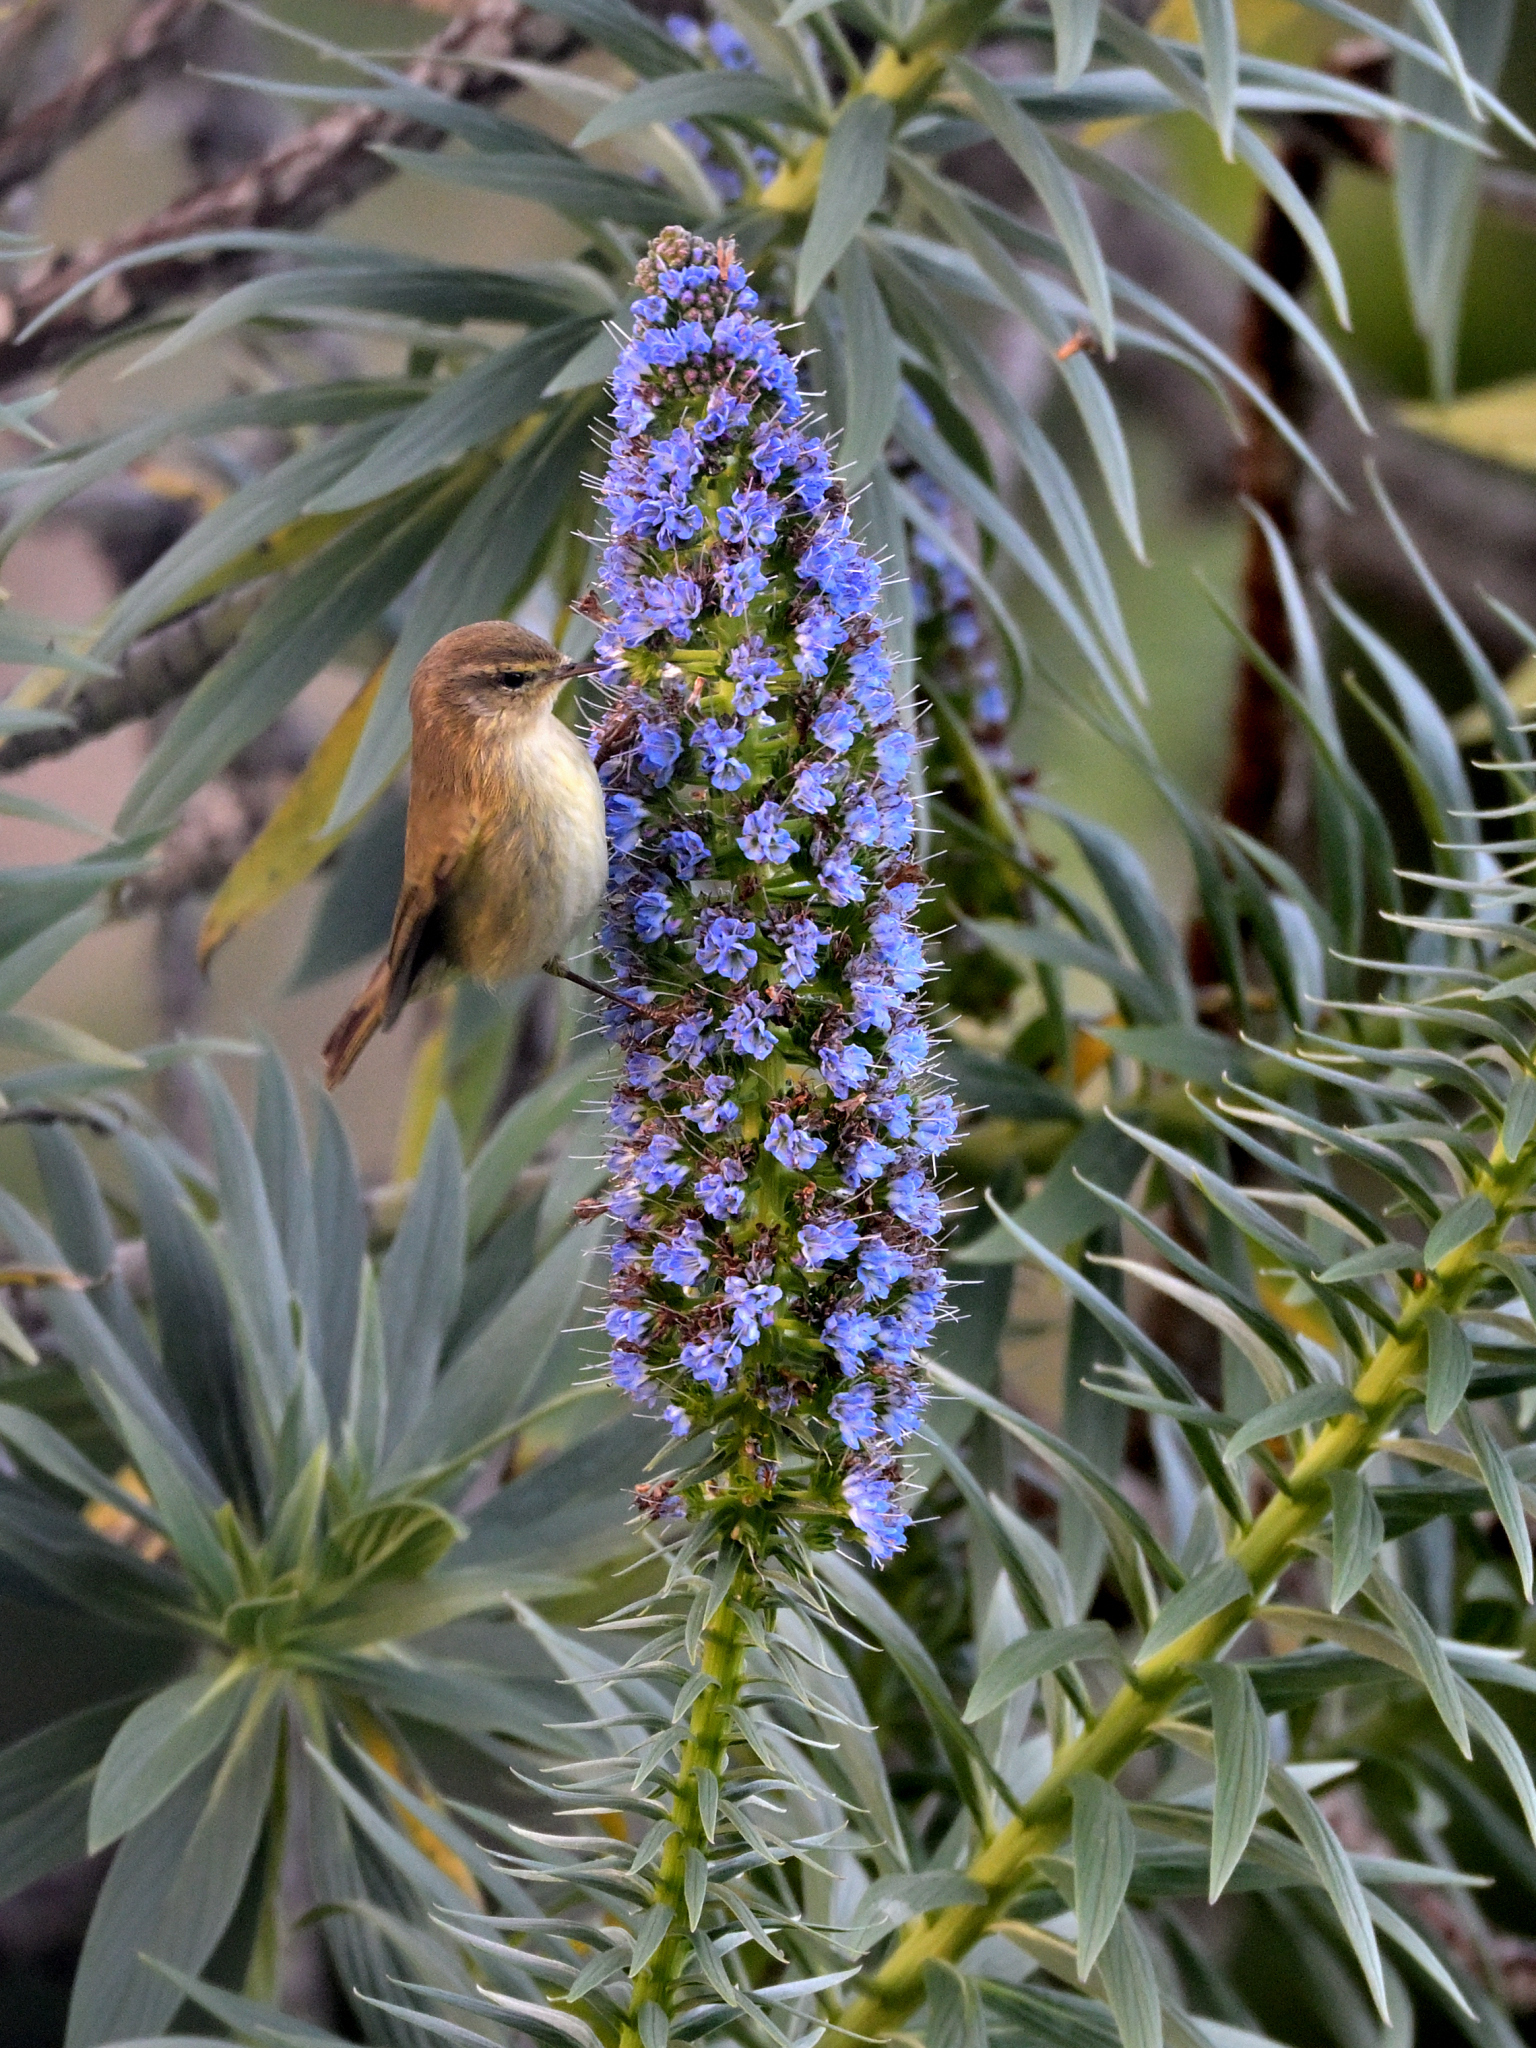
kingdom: Animalia
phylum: Chordata
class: Aves
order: Passeriformes
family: Phylloscopidae
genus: Phylloscopus
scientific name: Phylloscopus collybita
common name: Common chiffchaff
